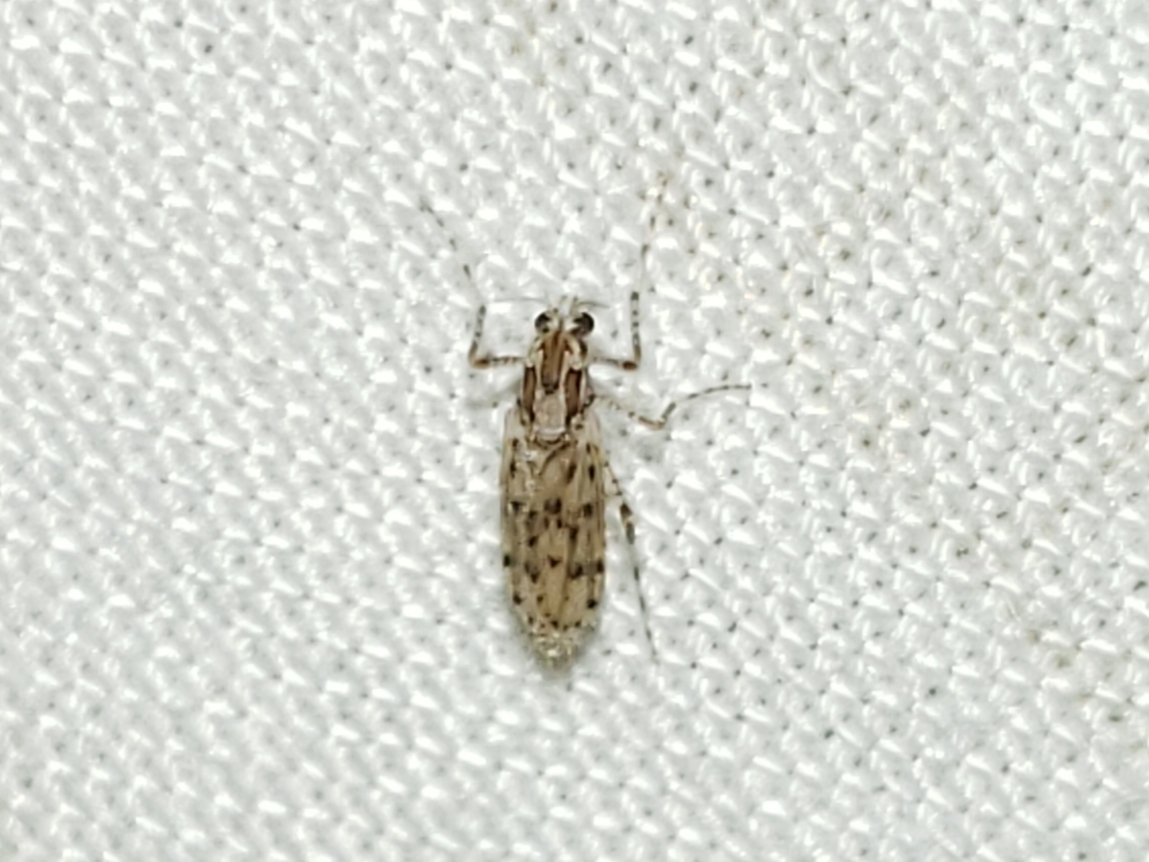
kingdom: Animalia
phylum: Arthropoda
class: Insecta
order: Diptera
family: Chaoboridae
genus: Chaoborus
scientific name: Chaoborus punctipennis
